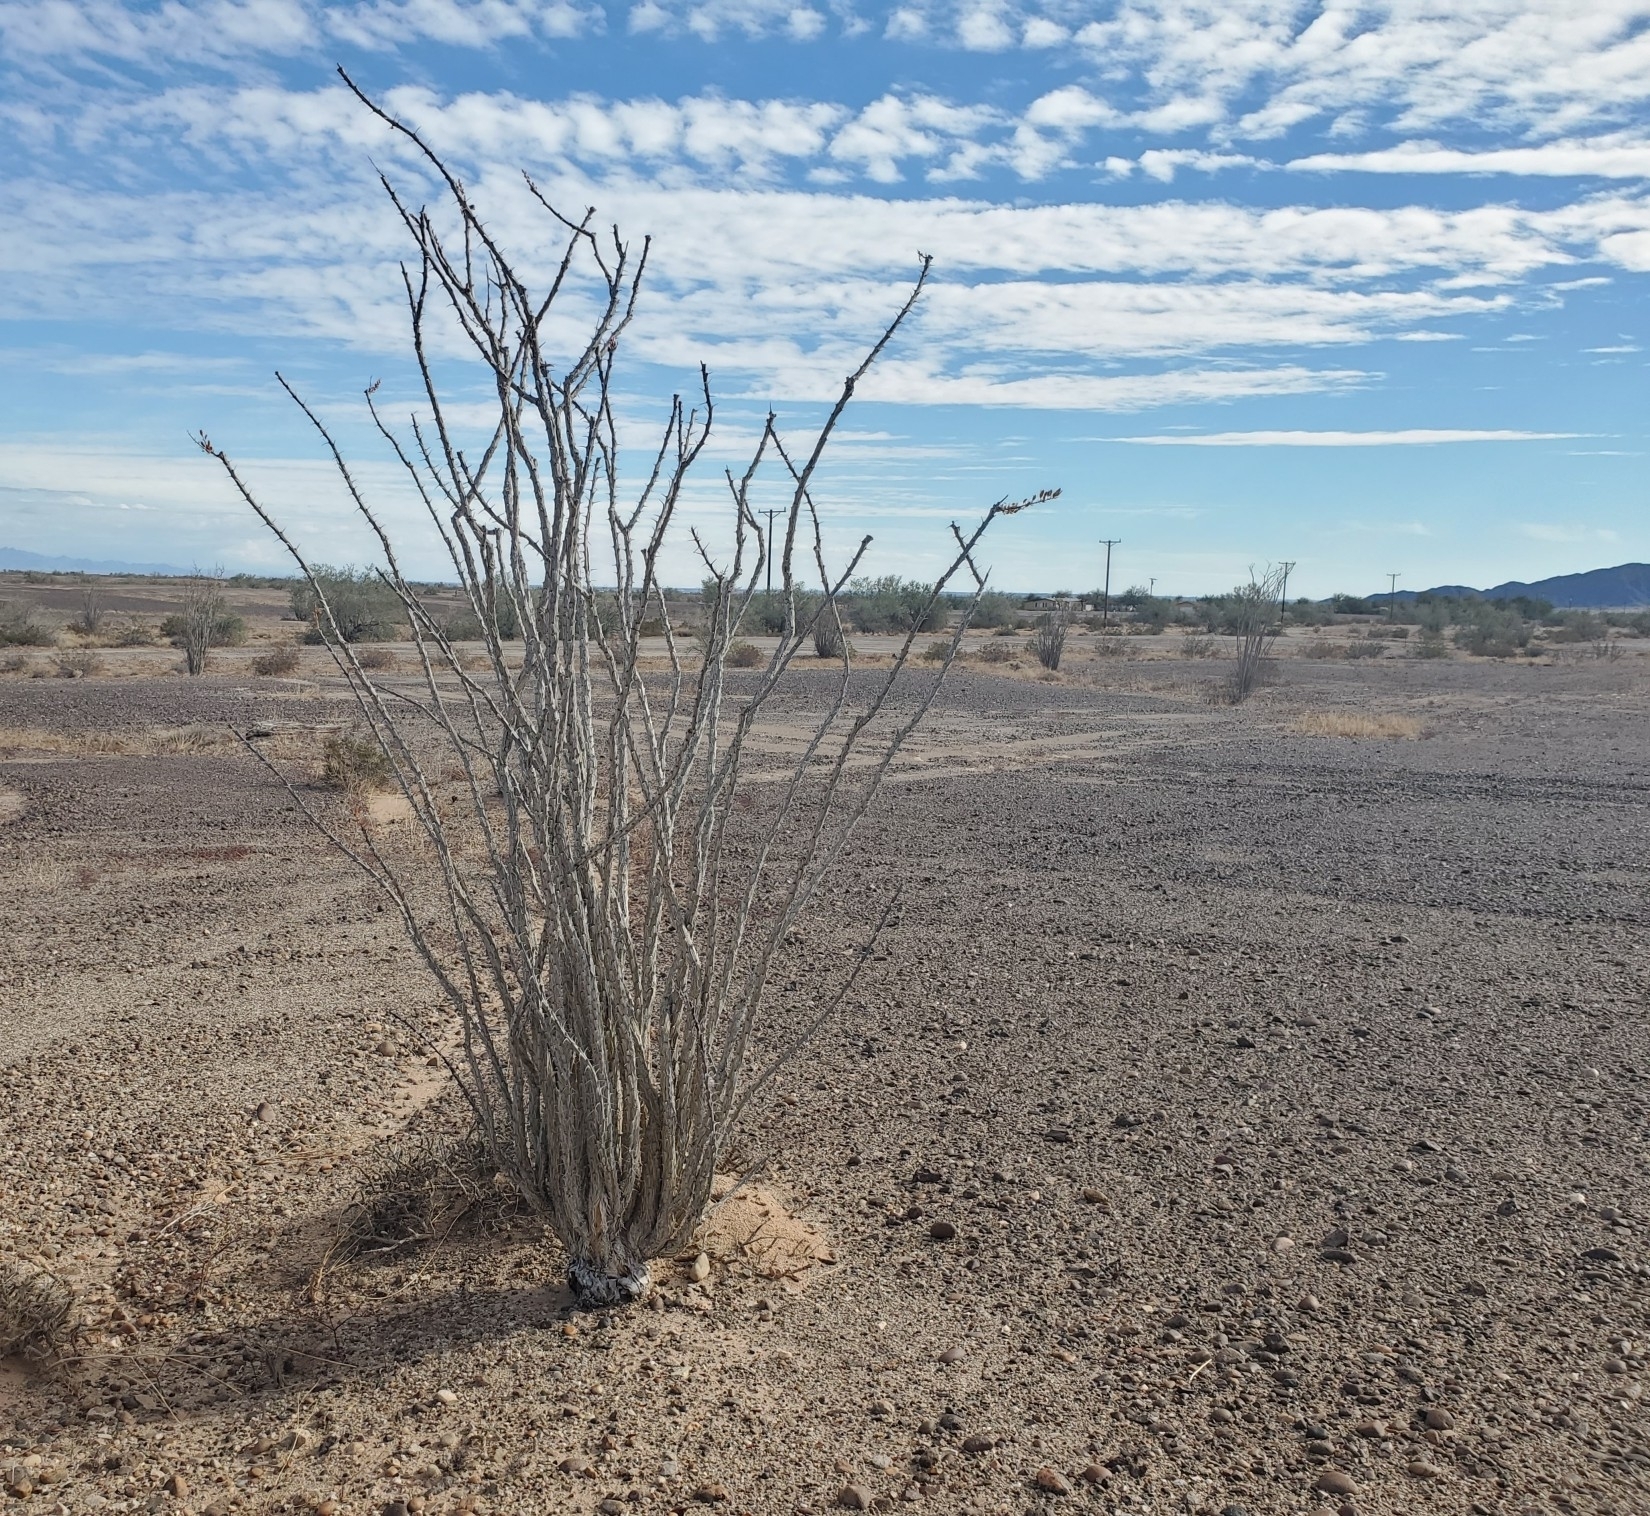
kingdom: Plantae
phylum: Tracheophyta
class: Magnoliopsida
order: Ericales
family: Fouquieriaceae
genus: Fouquieria
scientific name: Fouquieria splendens
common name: Vine-cactus
